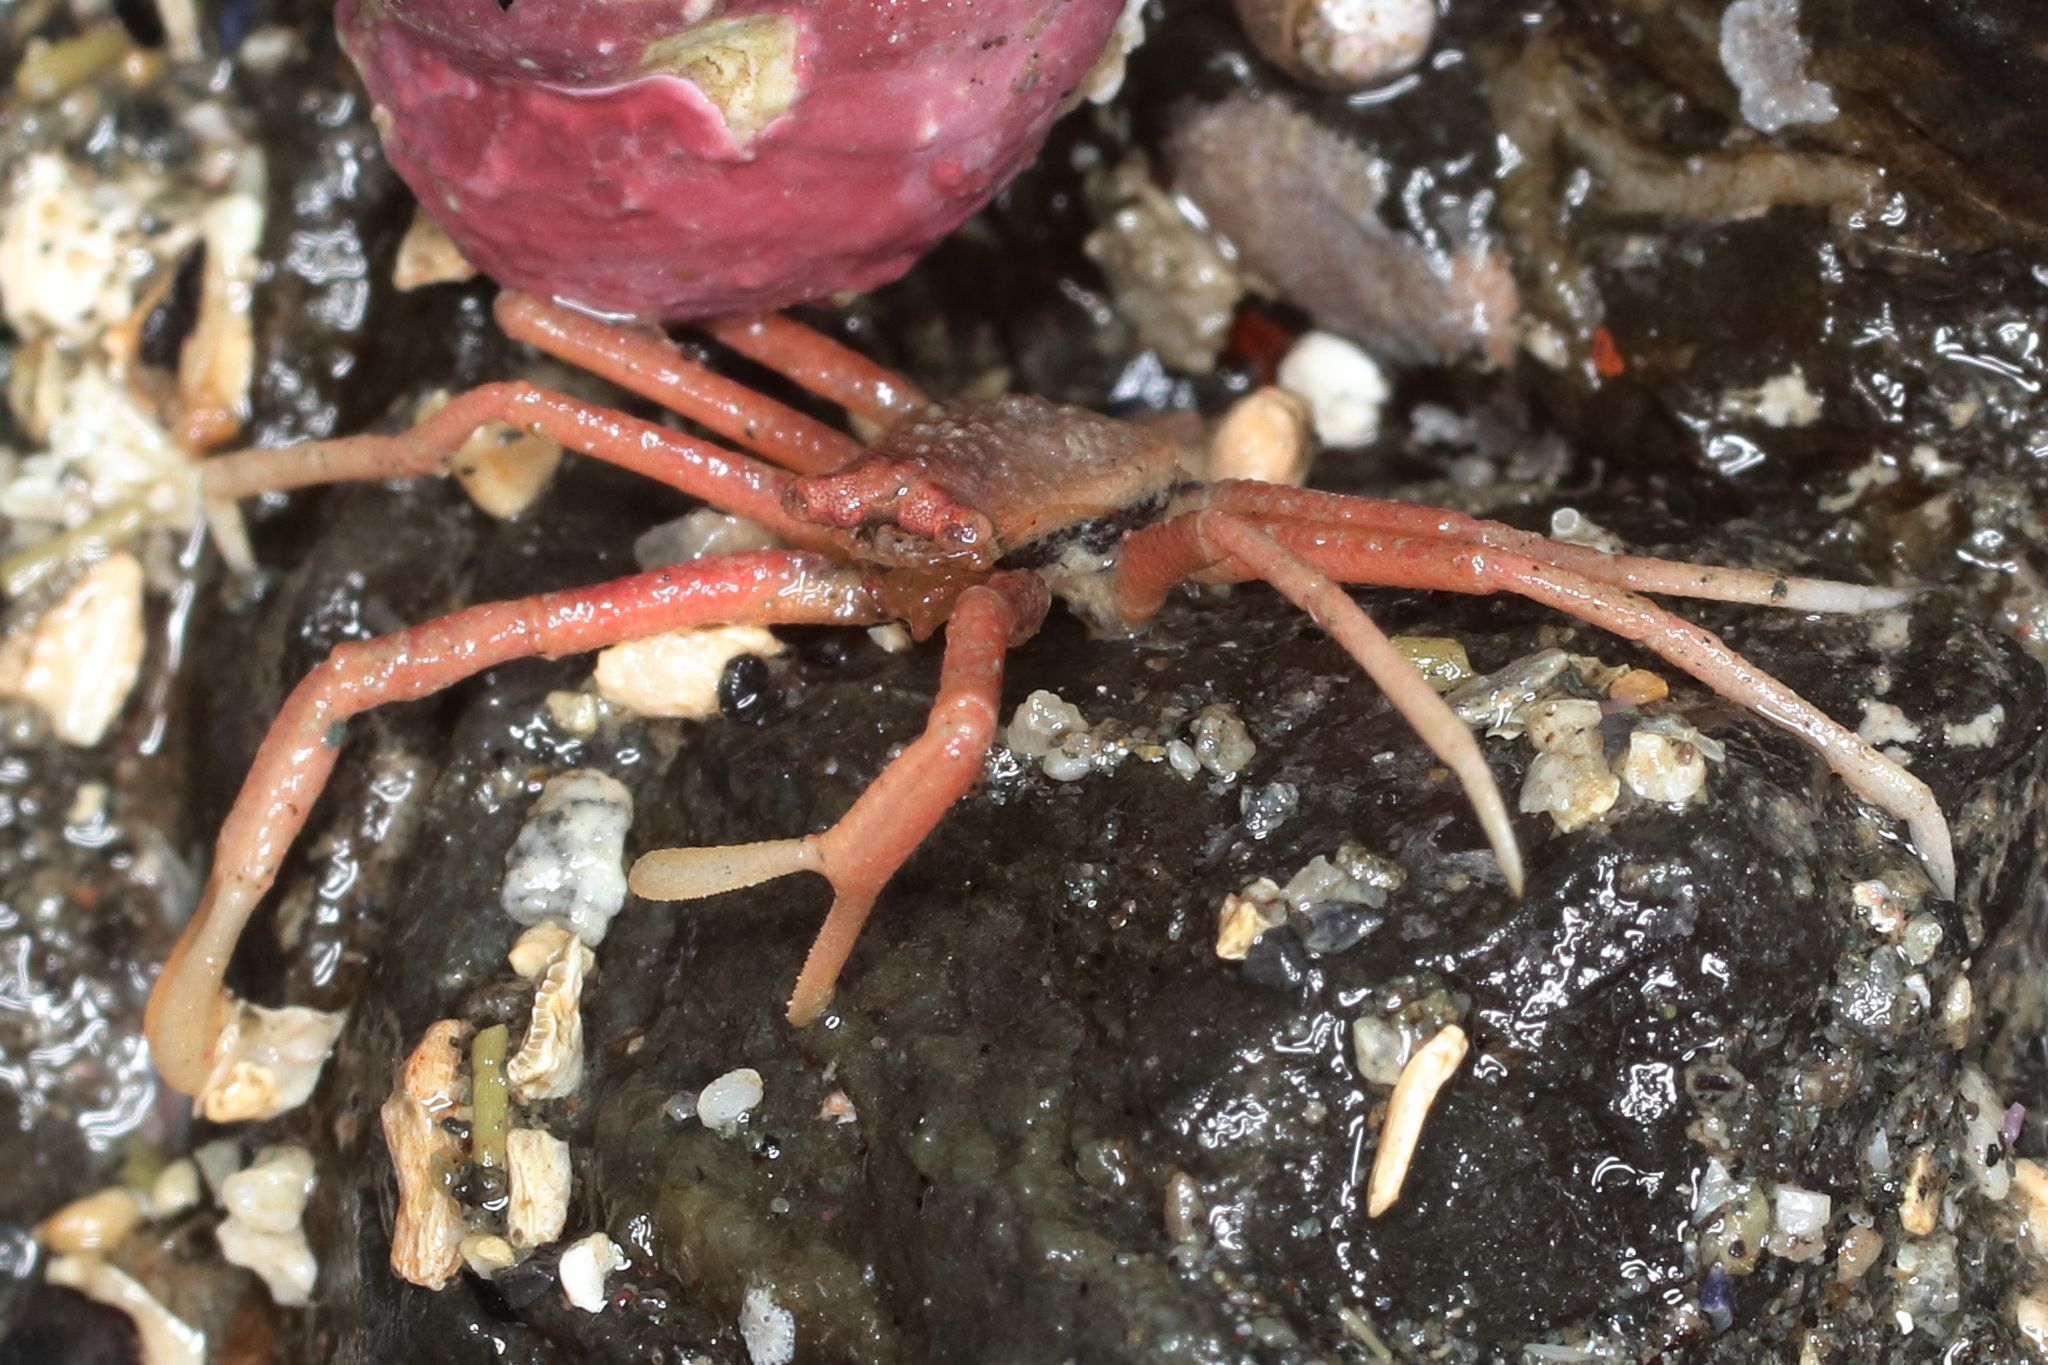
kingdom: Animalia
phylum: Arthropoda
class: Malacostraca
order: Decapoda
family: Hapalogastridae
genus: Placetron
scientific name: Placetron wosnessenskii
